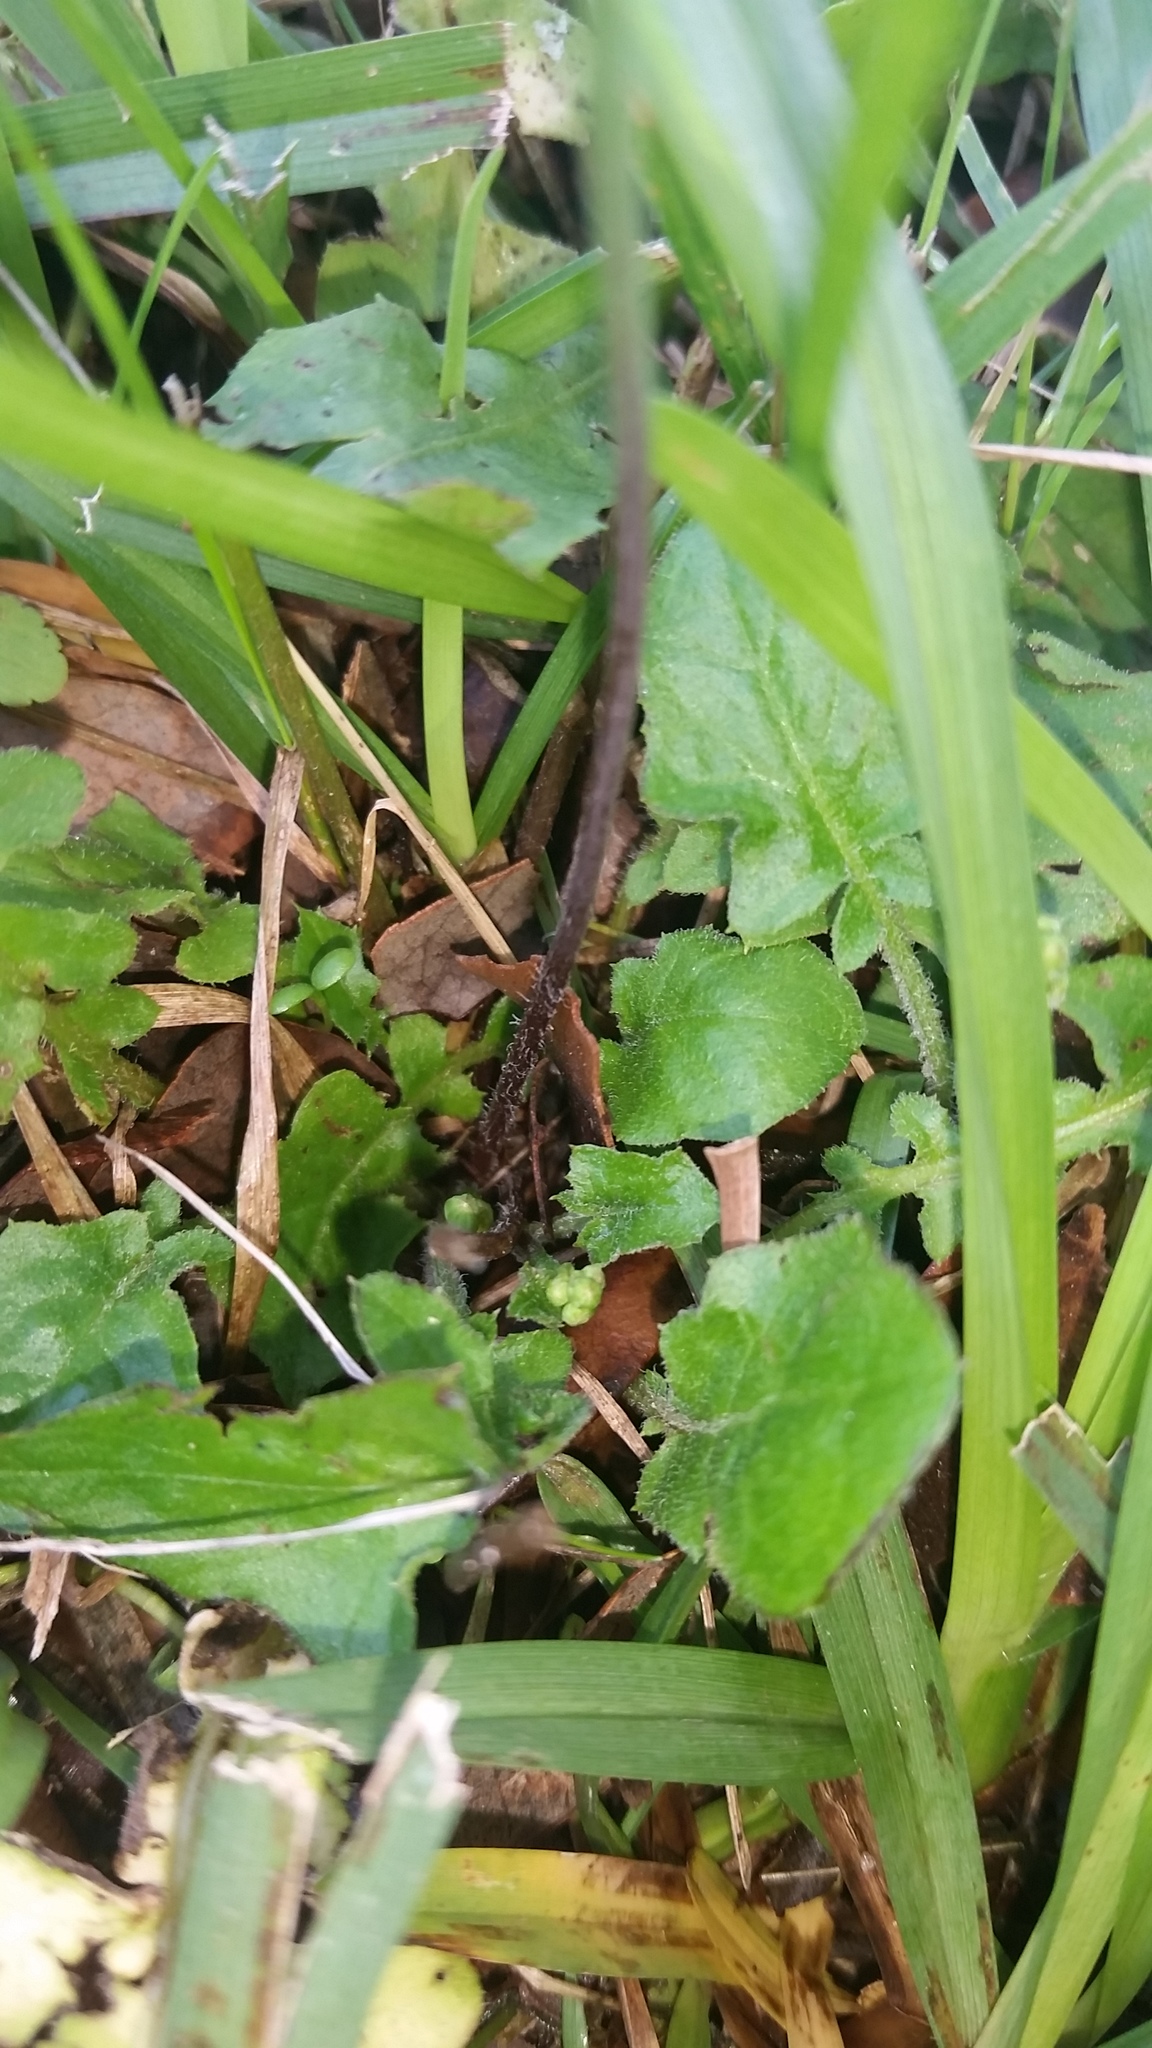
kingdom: Plantae
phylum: Tracheophyta
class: Magnoliopsida
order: Asterales
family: Asteraceae
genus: Youngia
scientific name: Youngia japonica
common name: Oriental false hawksbeard
